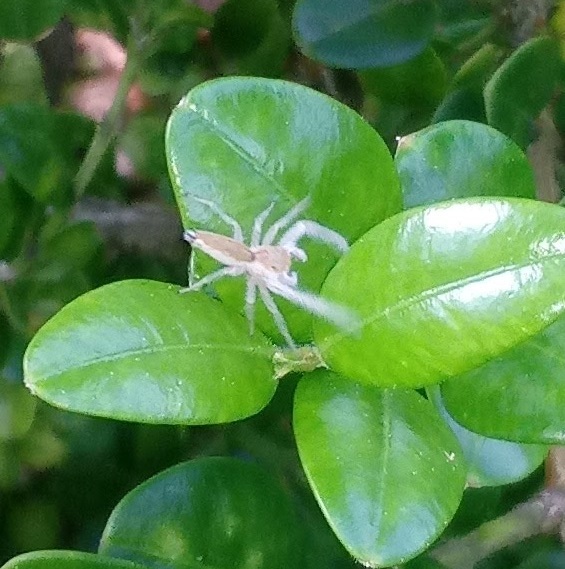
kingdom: Animalia
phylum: Arthropoda
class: Arachnida
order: Araneae
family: Salticidae
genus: Hentzia
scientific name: Hentzia mitrata
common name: White-jawed jumping spider
